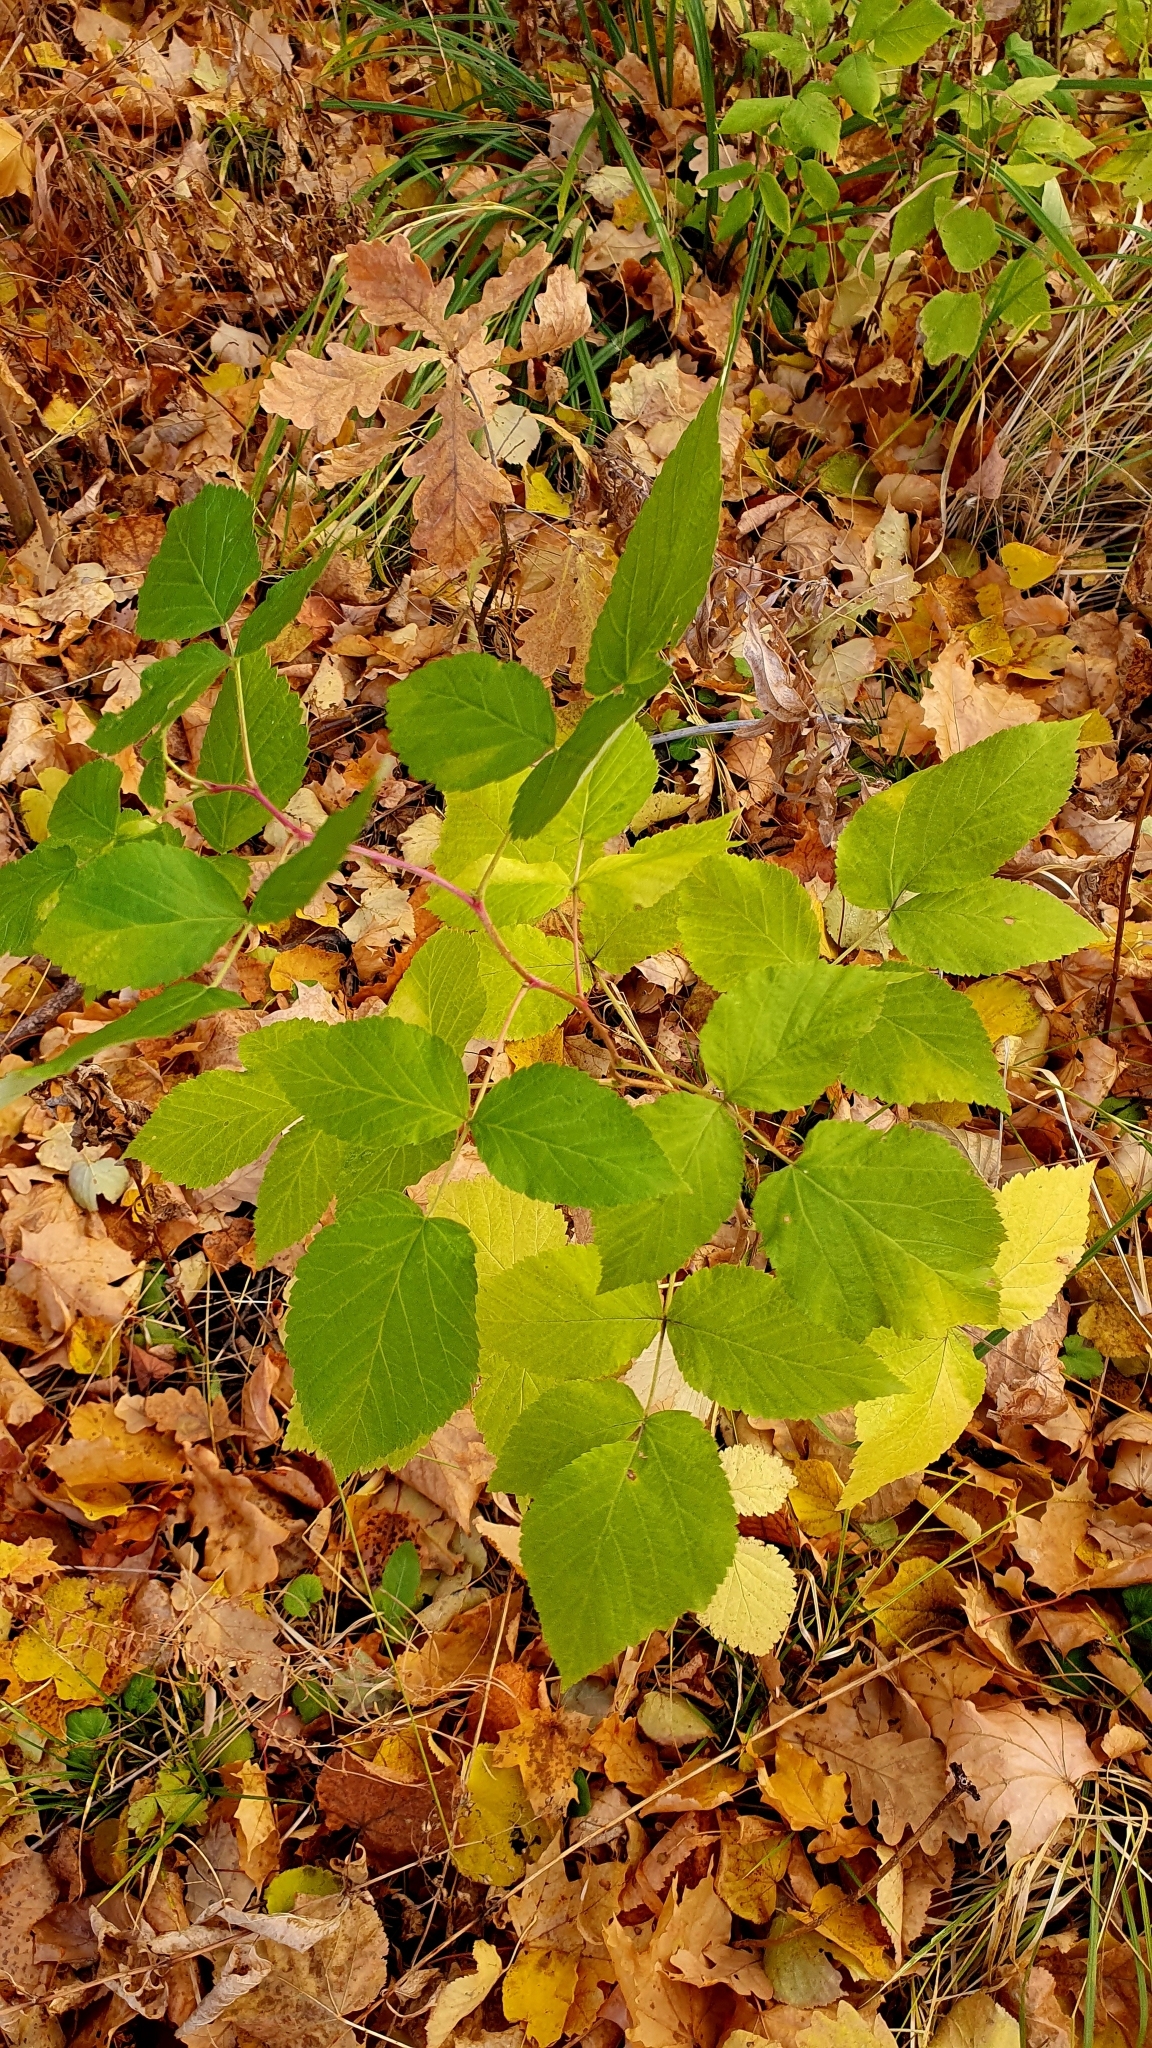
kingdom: Plantae
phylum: Tracheophyta
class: Magnoliopsida
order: Rosales
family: Rosaceae
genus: Rubus
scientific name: Rubus idaeus
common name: Raspberry
